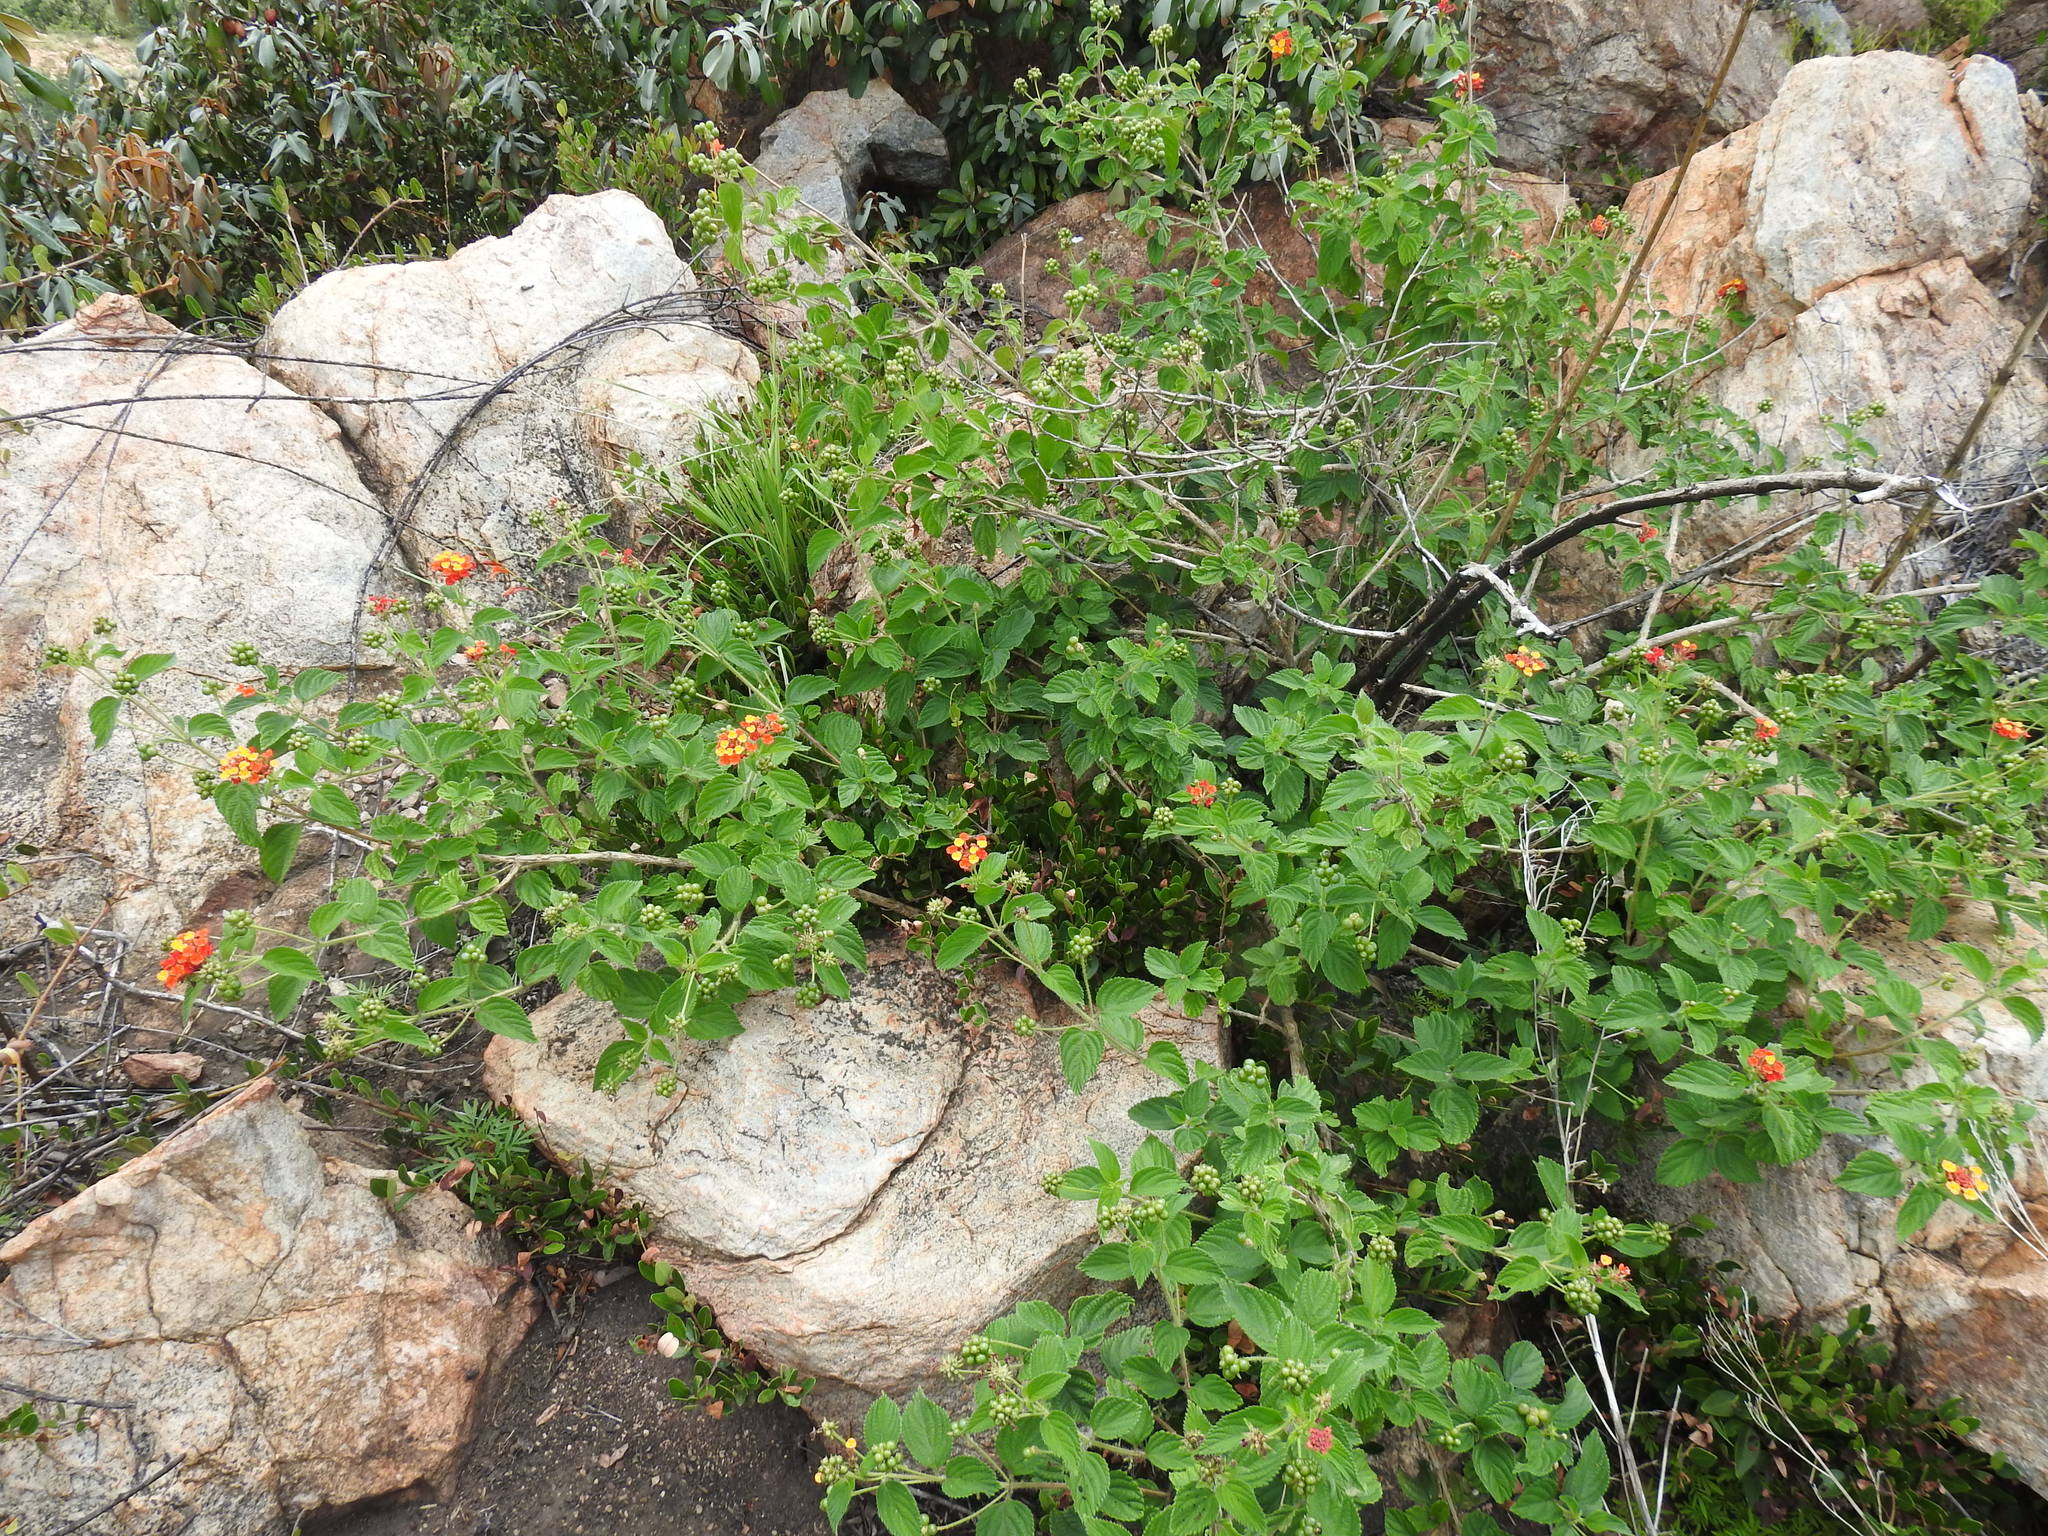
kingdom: Plantae
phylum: Tracheophyta
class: Magnoliopsida
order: Lamiales
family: Verbenaceae
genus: Lantana
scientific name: Lantana camara
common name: Lantana
